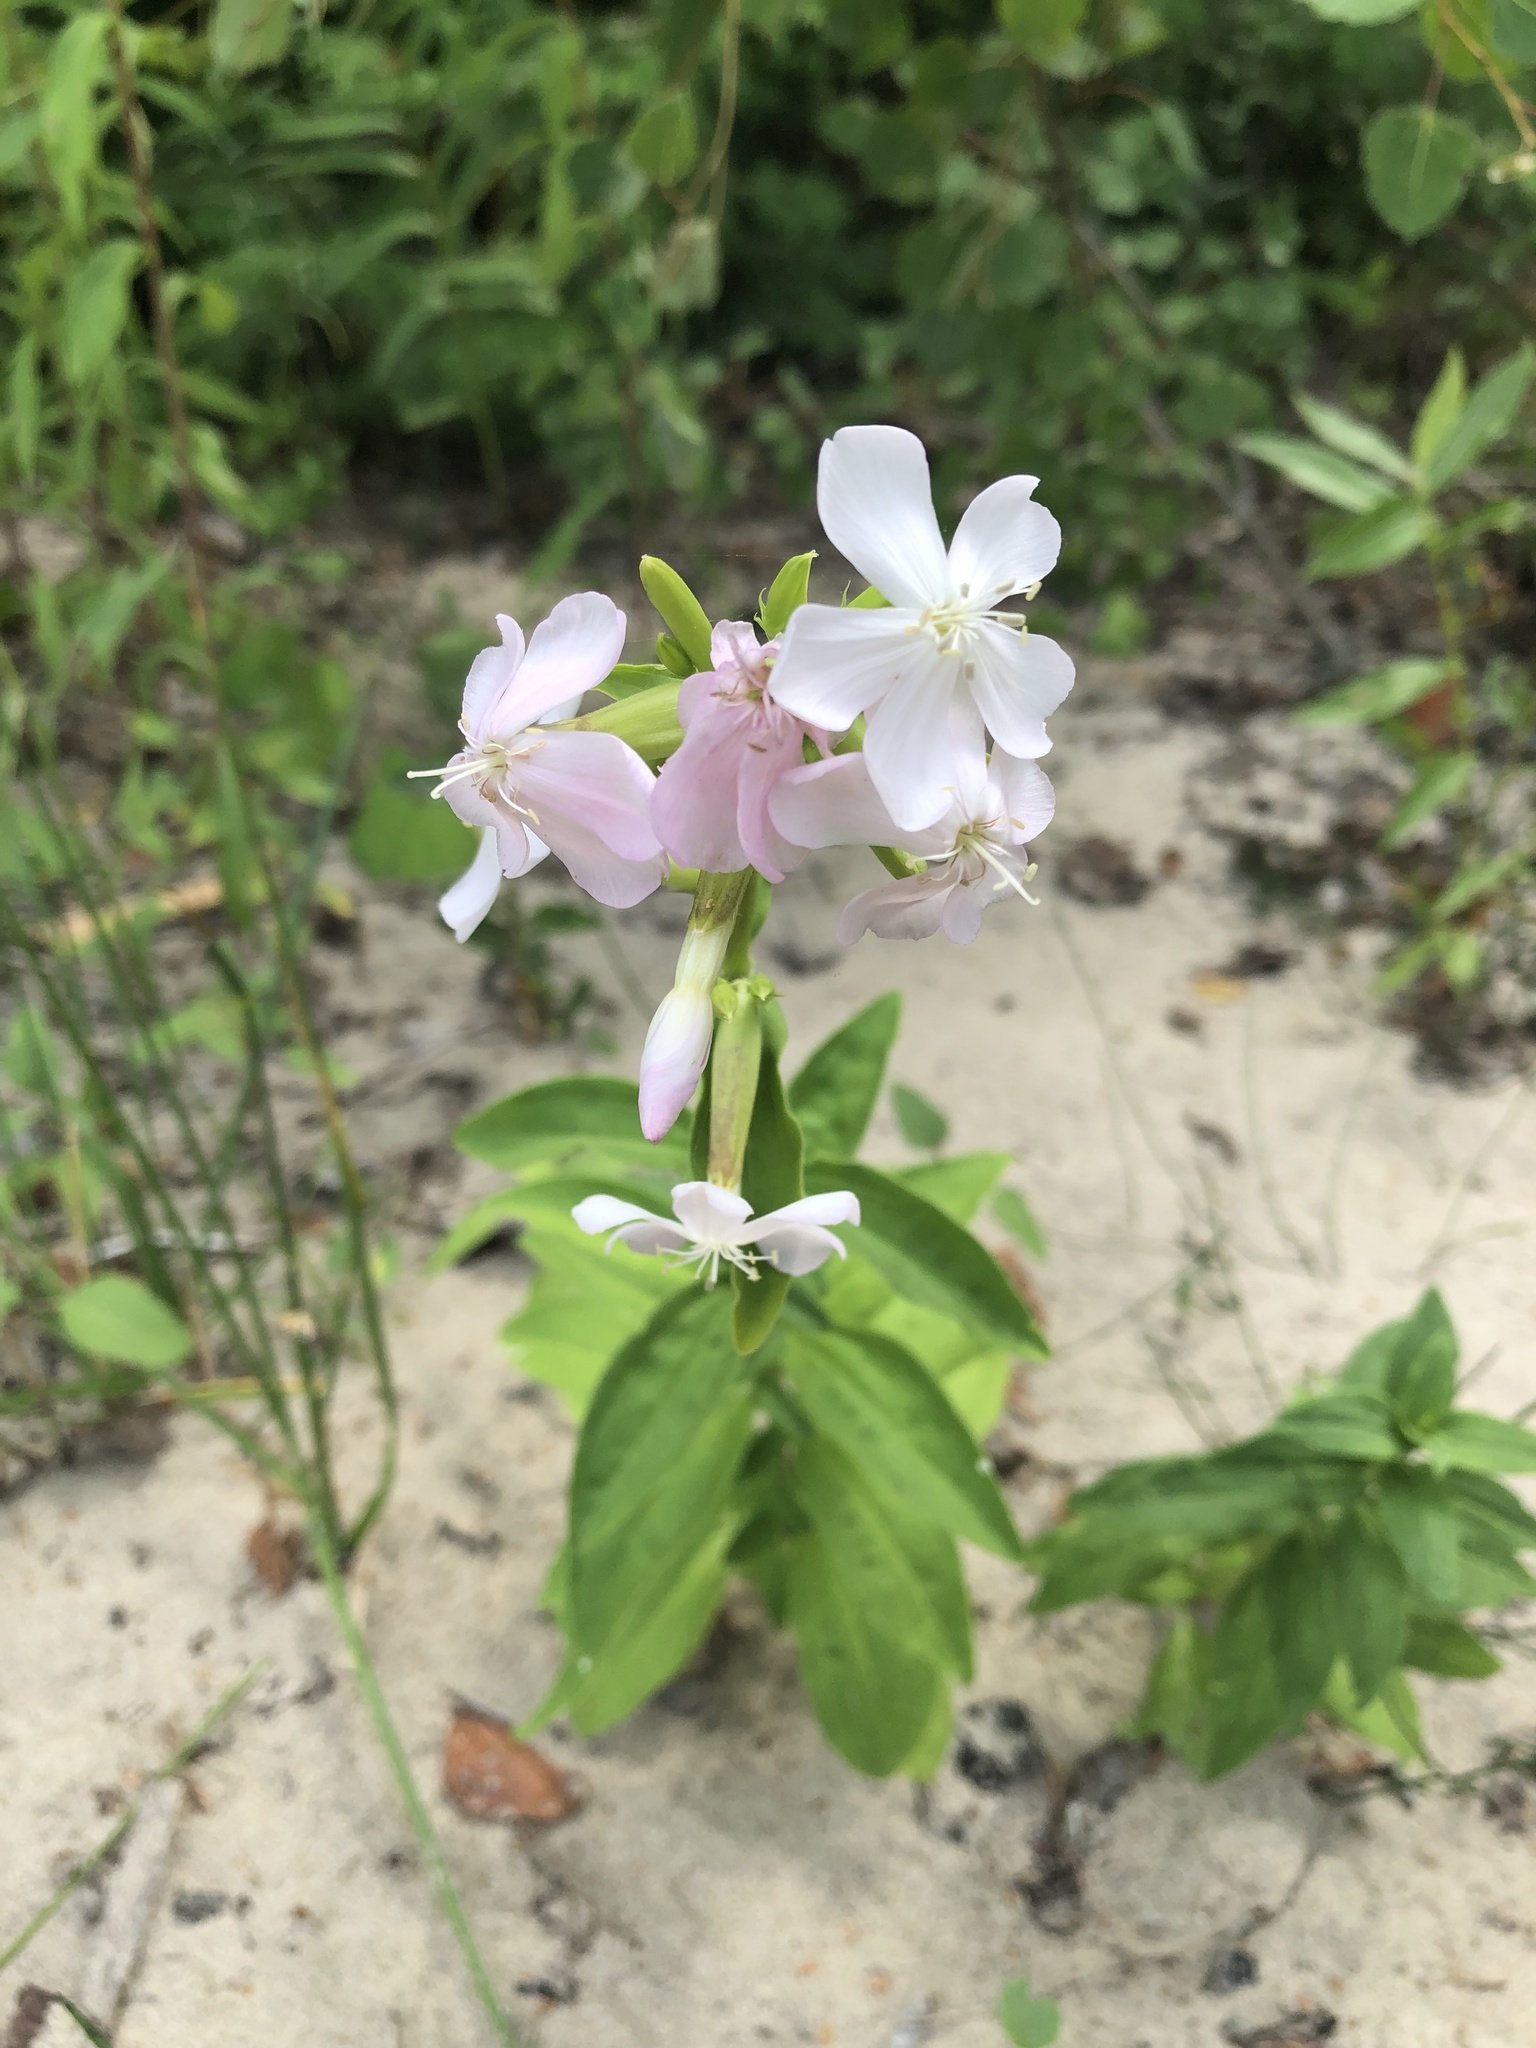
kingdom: Plantae
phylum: Tracheophyta
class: Magnoliopsida
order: Caryophyllales
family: Caryophyllaceae
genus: Saponaria
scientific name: Saponaria officinalis
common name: Soapwort
